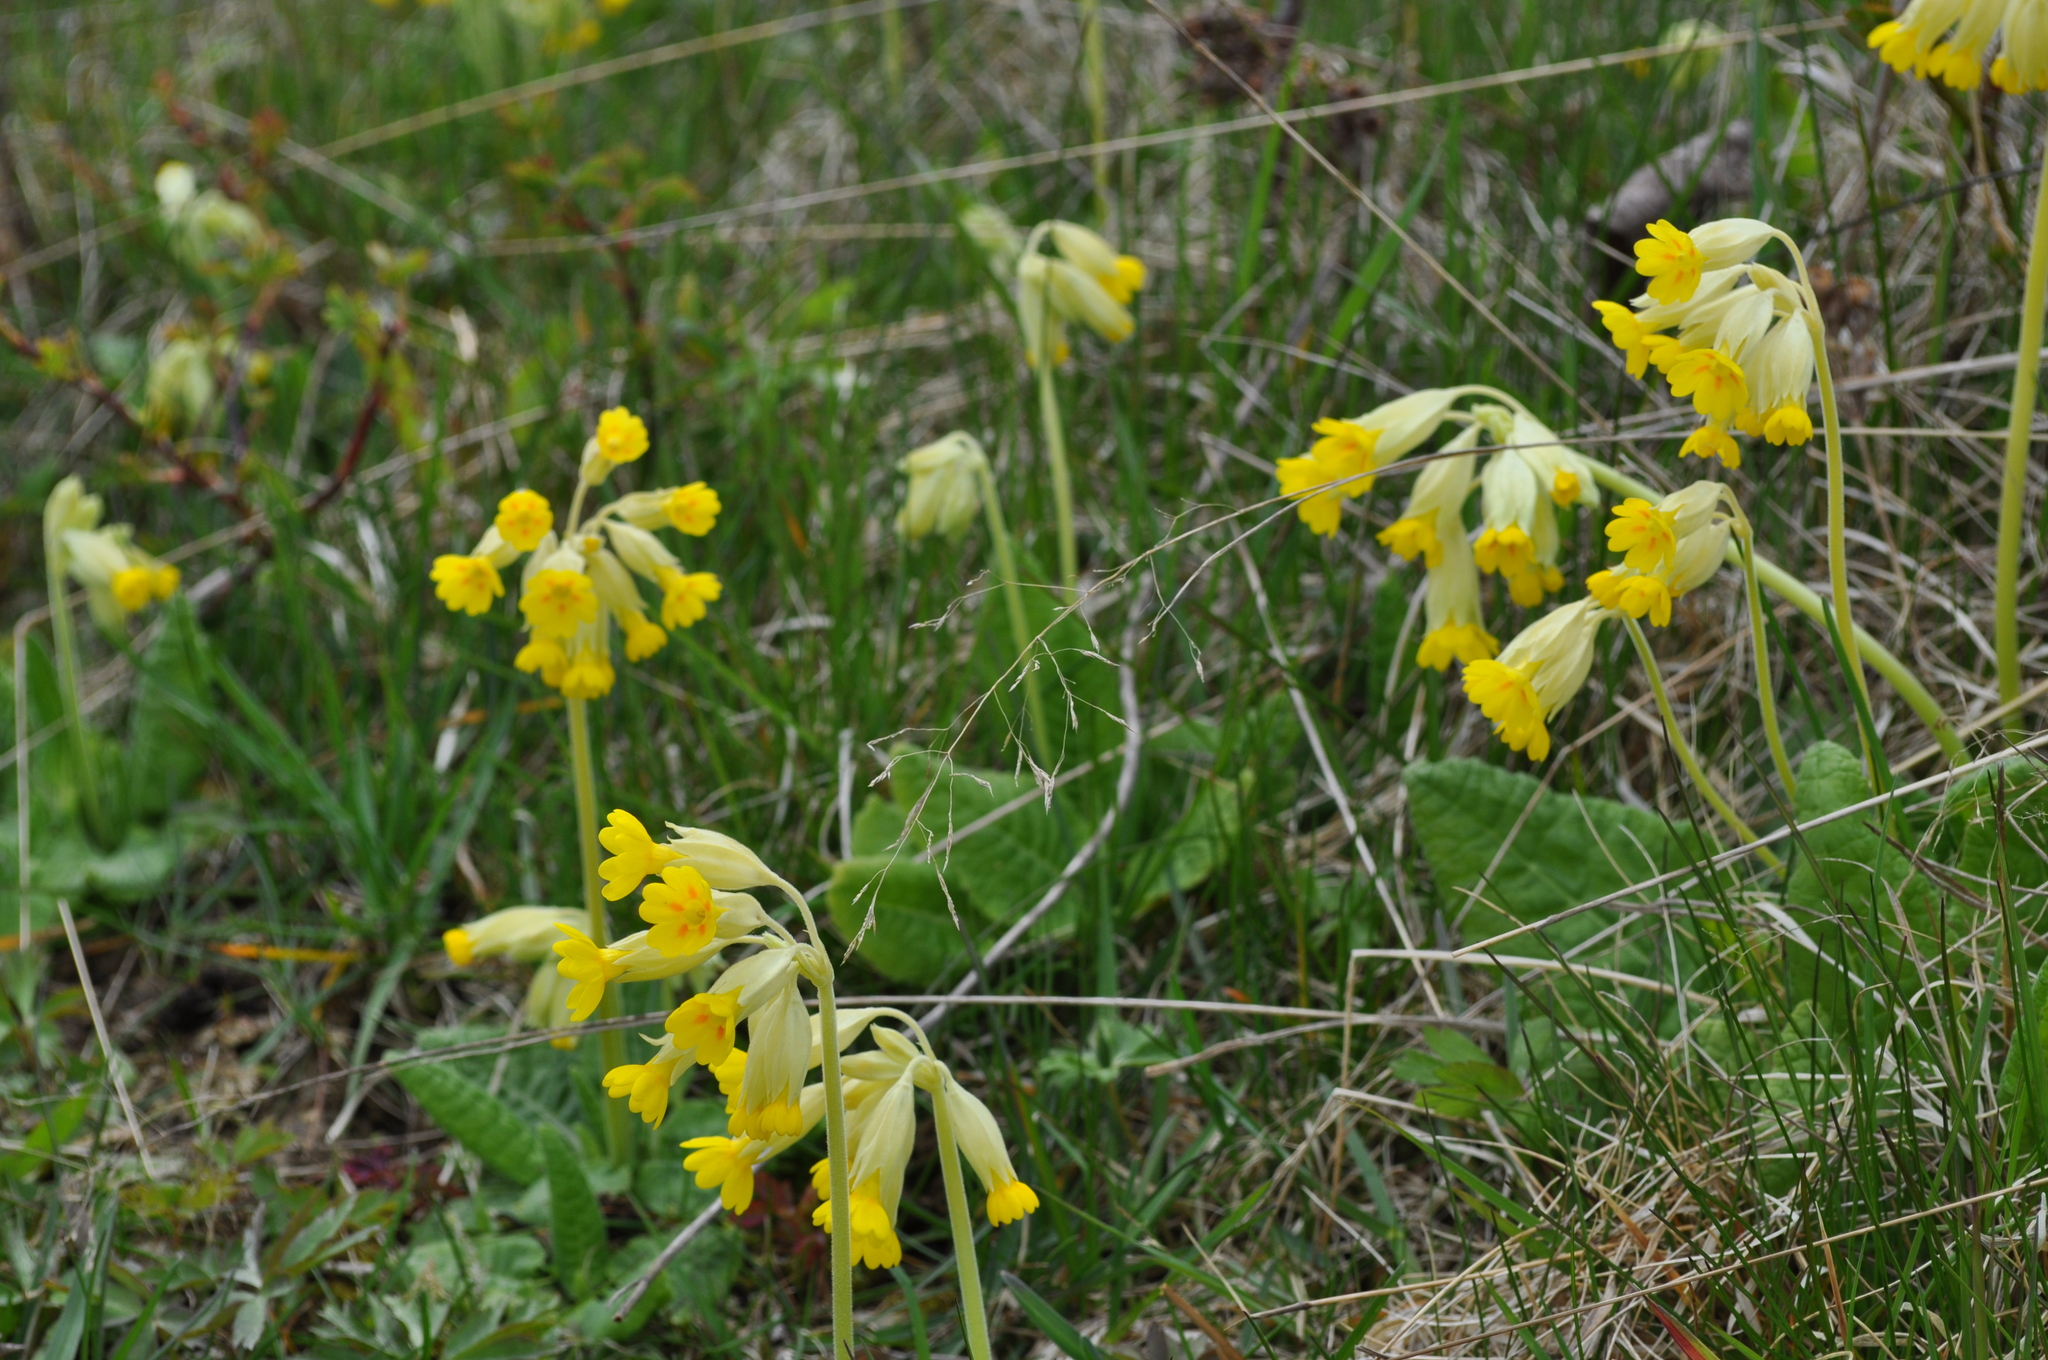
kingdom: Plantae
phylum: Tracheophyta
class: Magnoliopsida
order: Ericales
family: Primulaceae
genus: Primula
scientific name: Primula veris
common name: Cowslip
